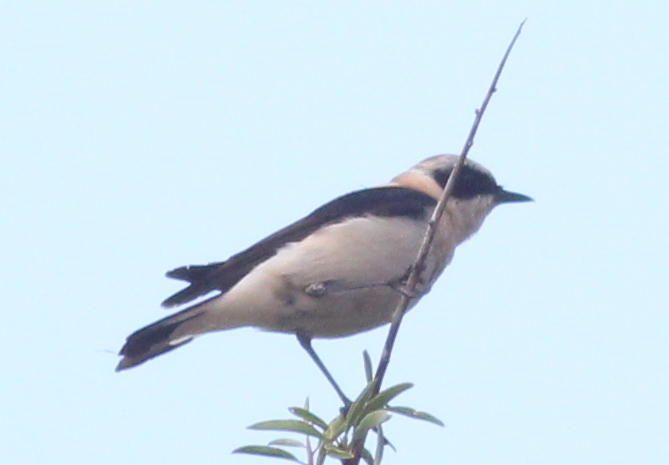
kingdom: Animalia
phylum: Chordata
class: Aves
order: Passeriformes
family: Muscicapidae
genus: Oenanthe
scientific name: Oenanthe hispanica
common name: Black-eared wheatear
